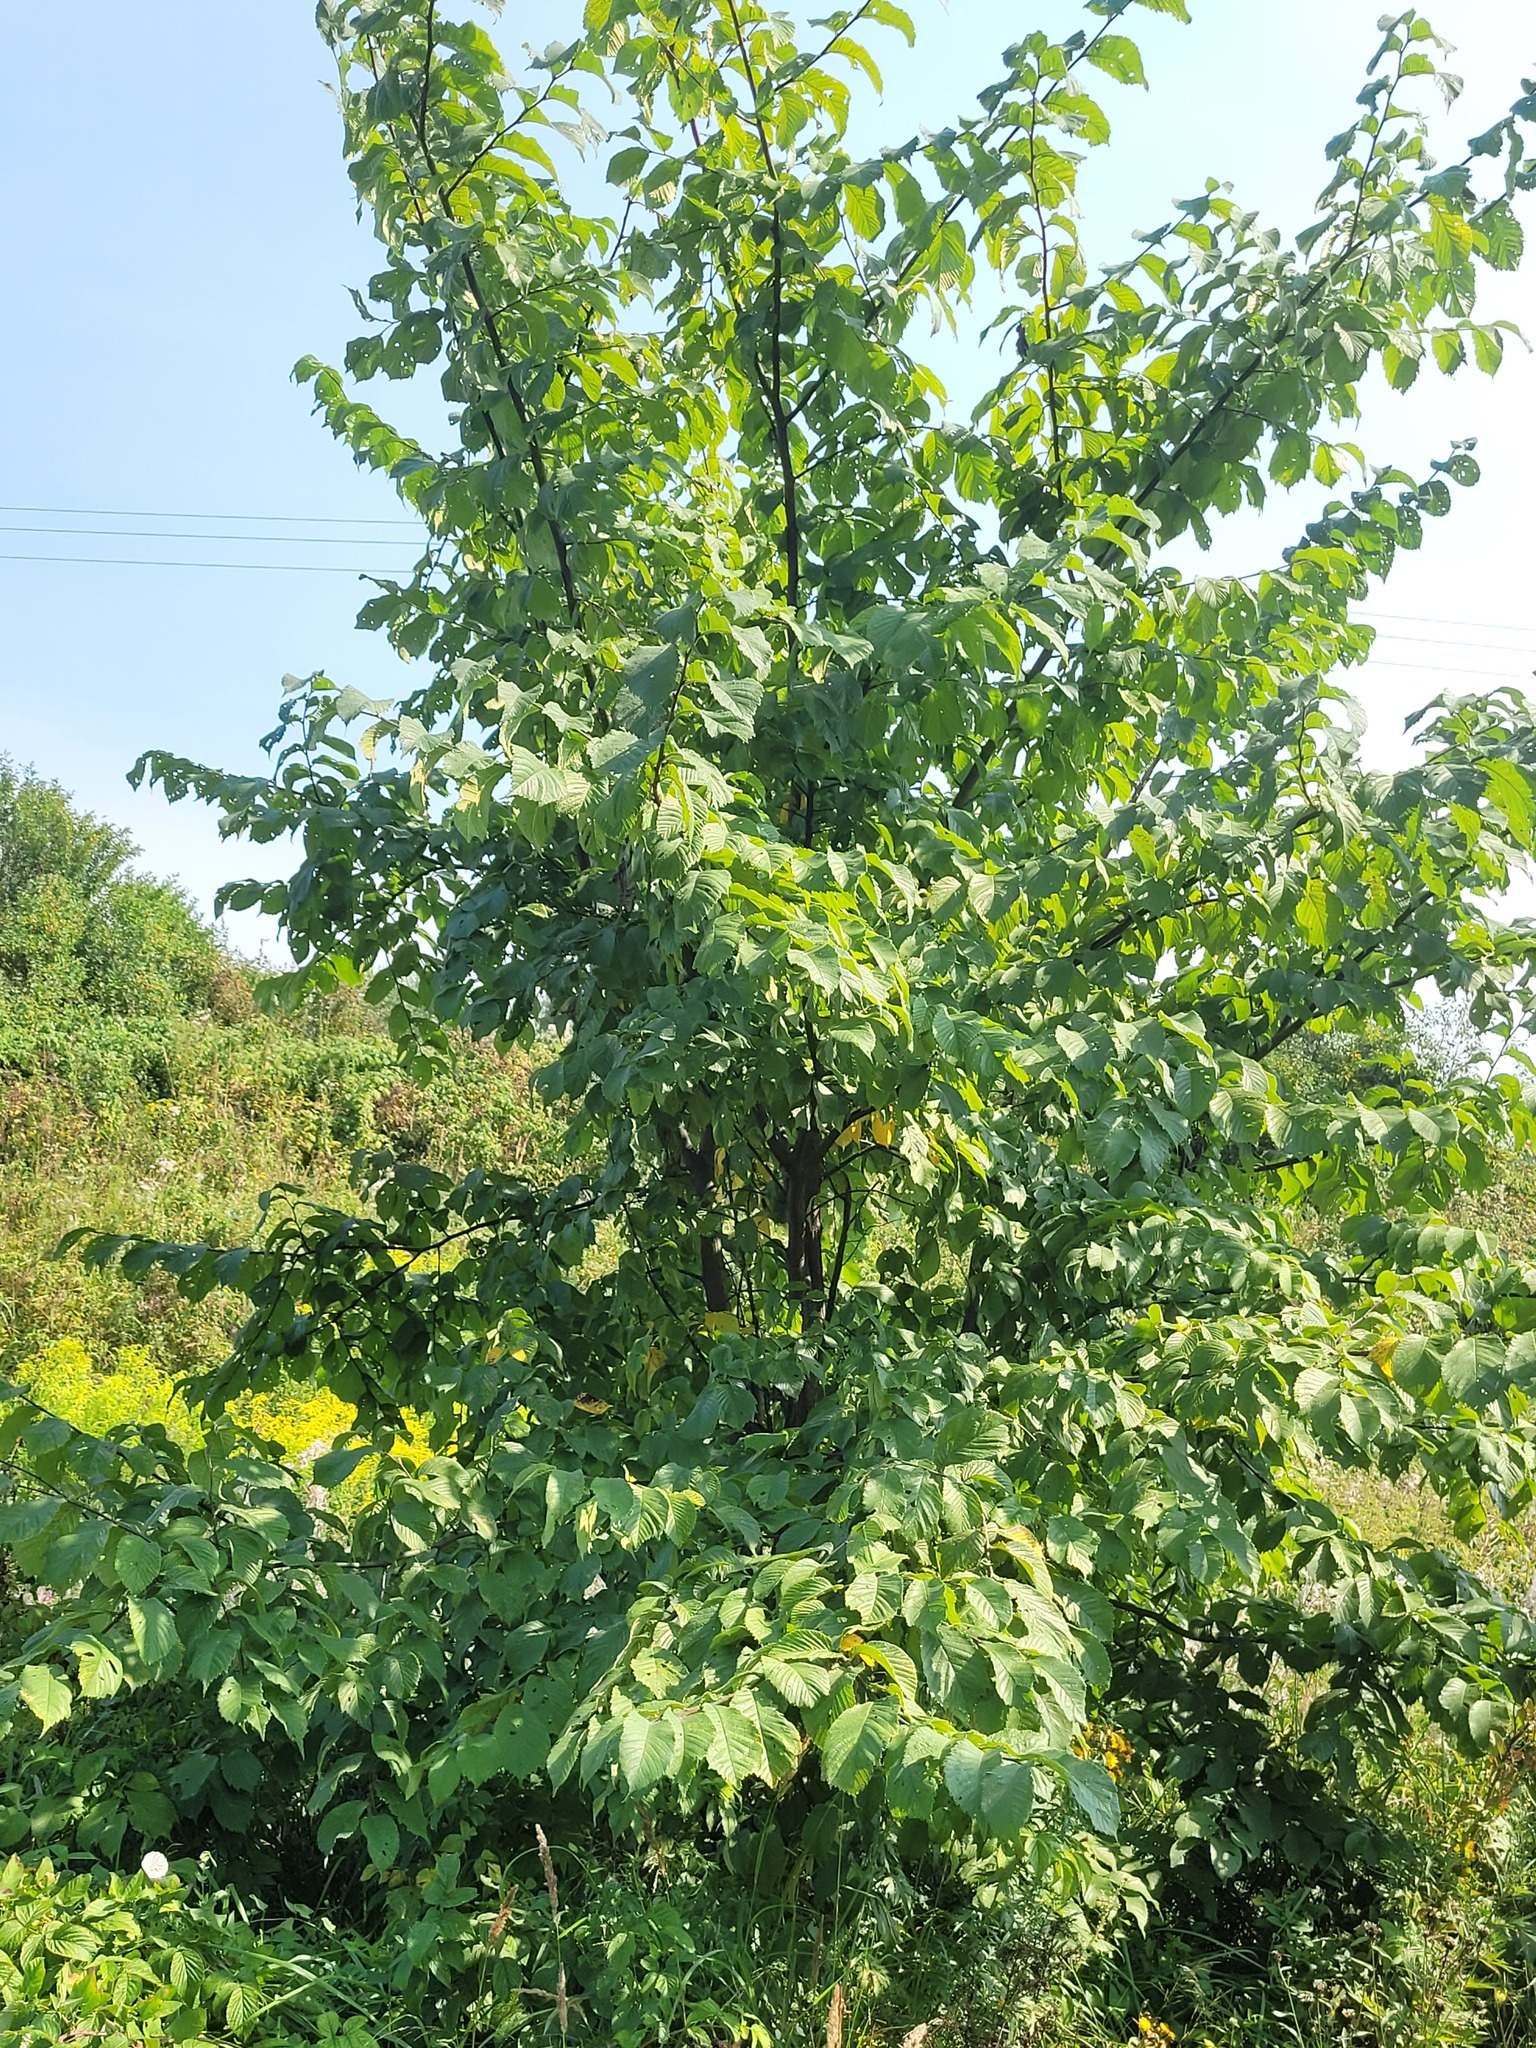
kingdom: Plantae
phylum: Tracheophyta
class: Magnoliopsida
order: Rosales
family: Ulmaceae
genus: Ulmus
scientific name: Ulmus glabra
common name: Wych elm
